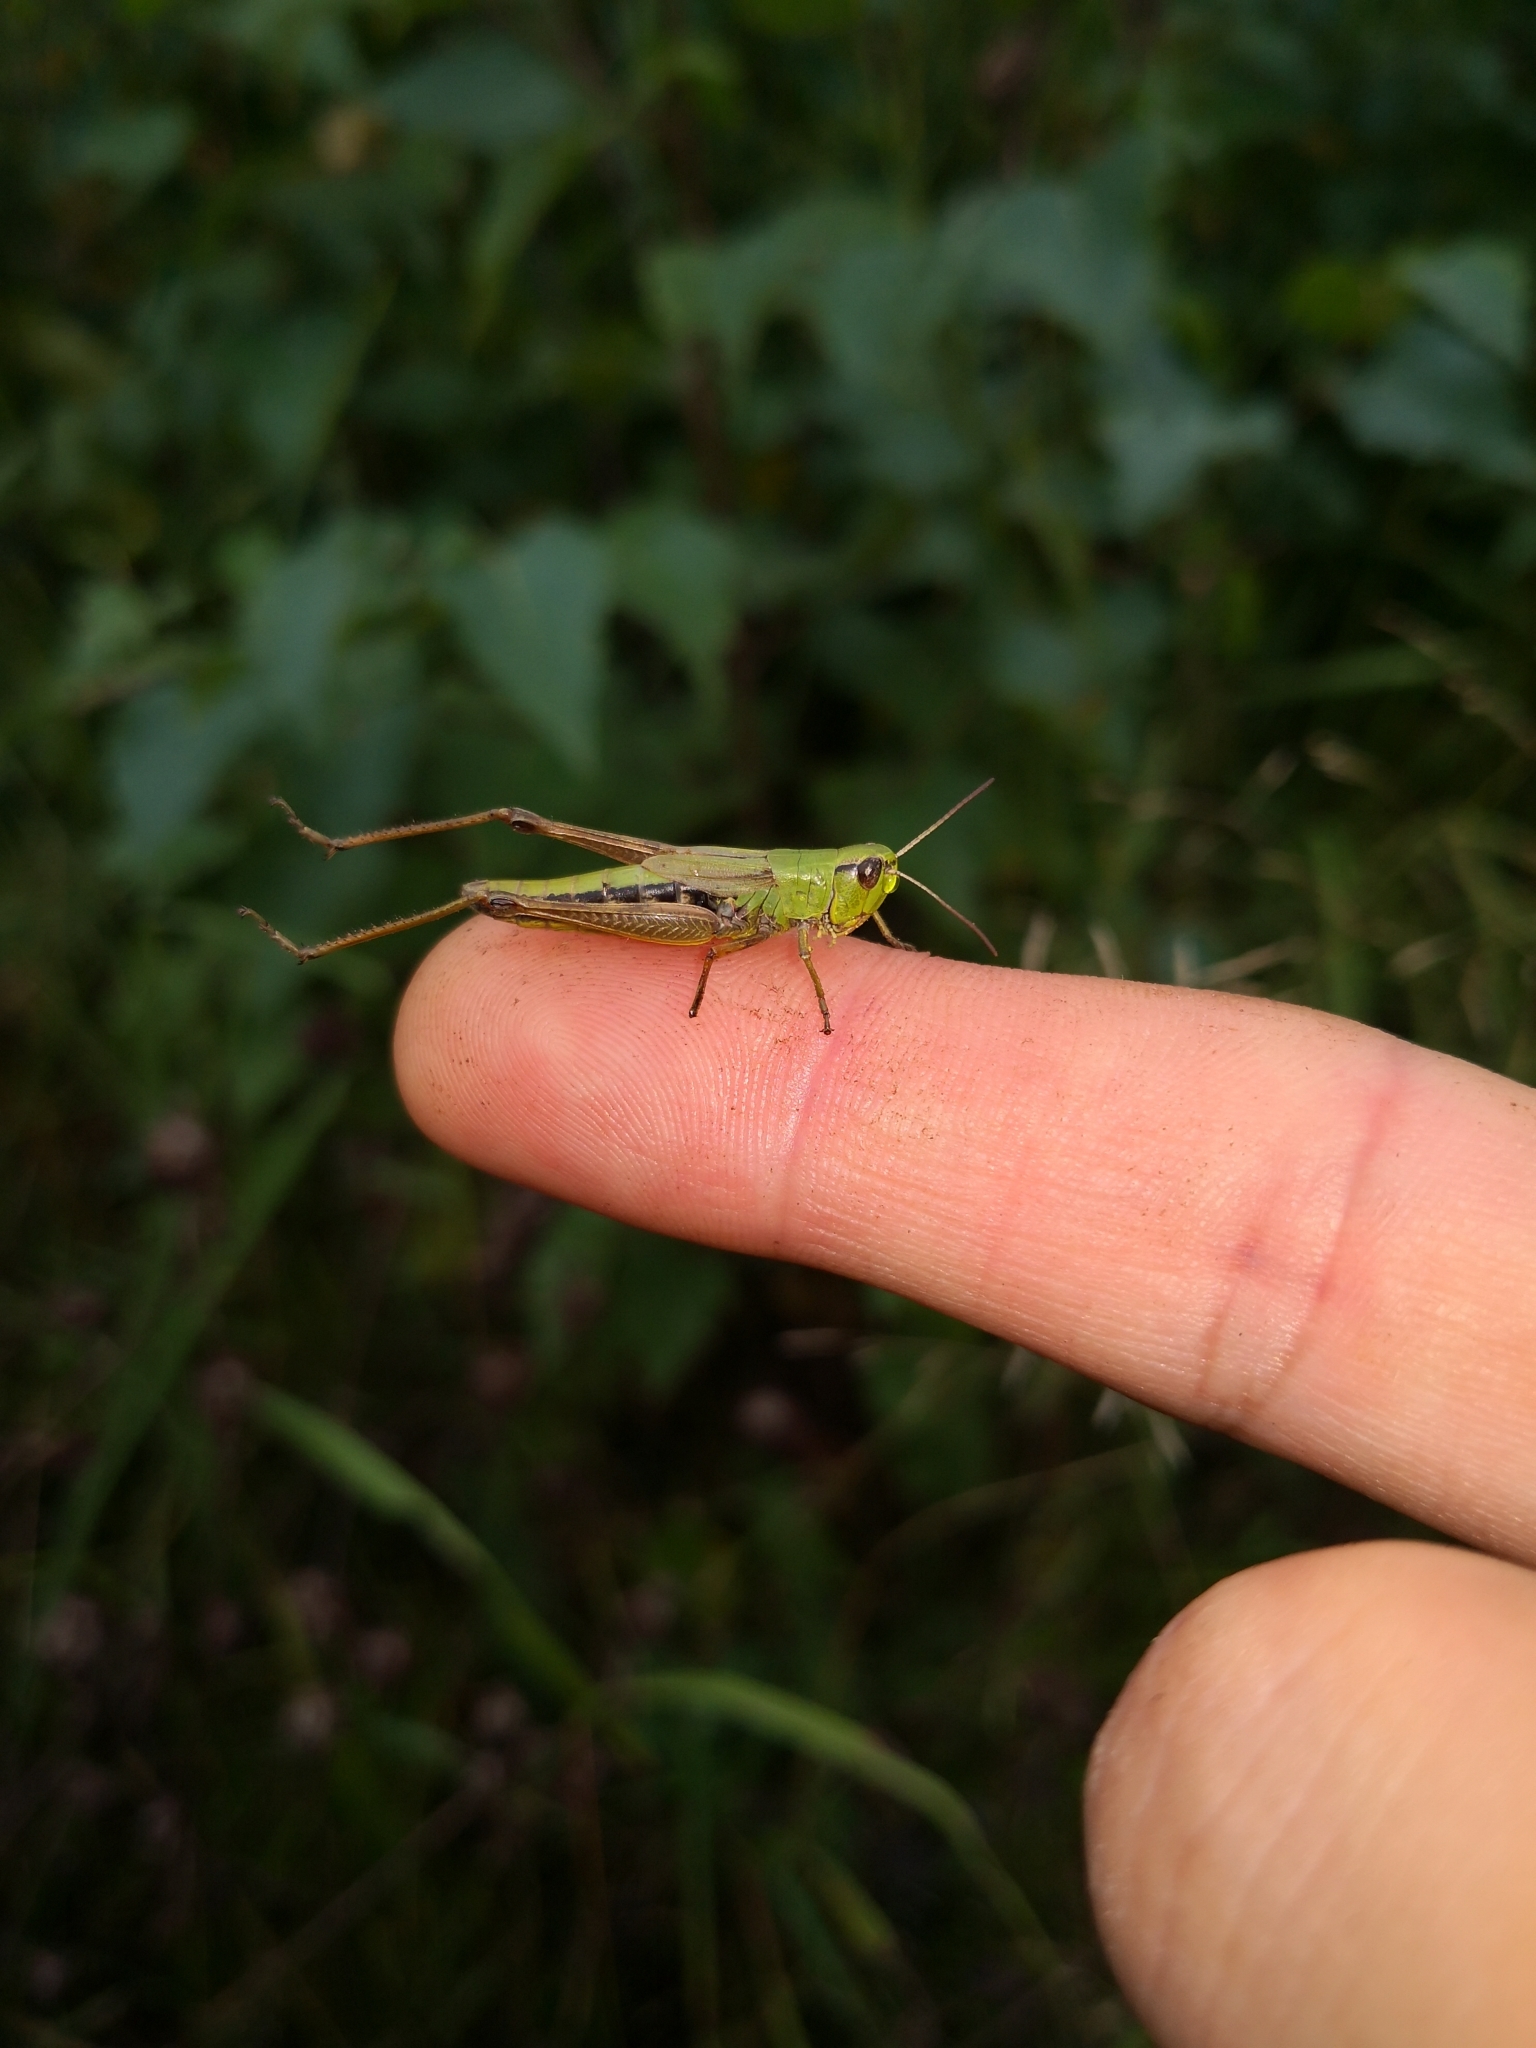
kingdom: Animalia
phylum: Arthropoda
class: Insecta
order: Orthoptera
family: Acrididae
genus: Pseudochorthippus
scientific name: Pseudochorthippus parallelus
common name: Meadow grasshopper
